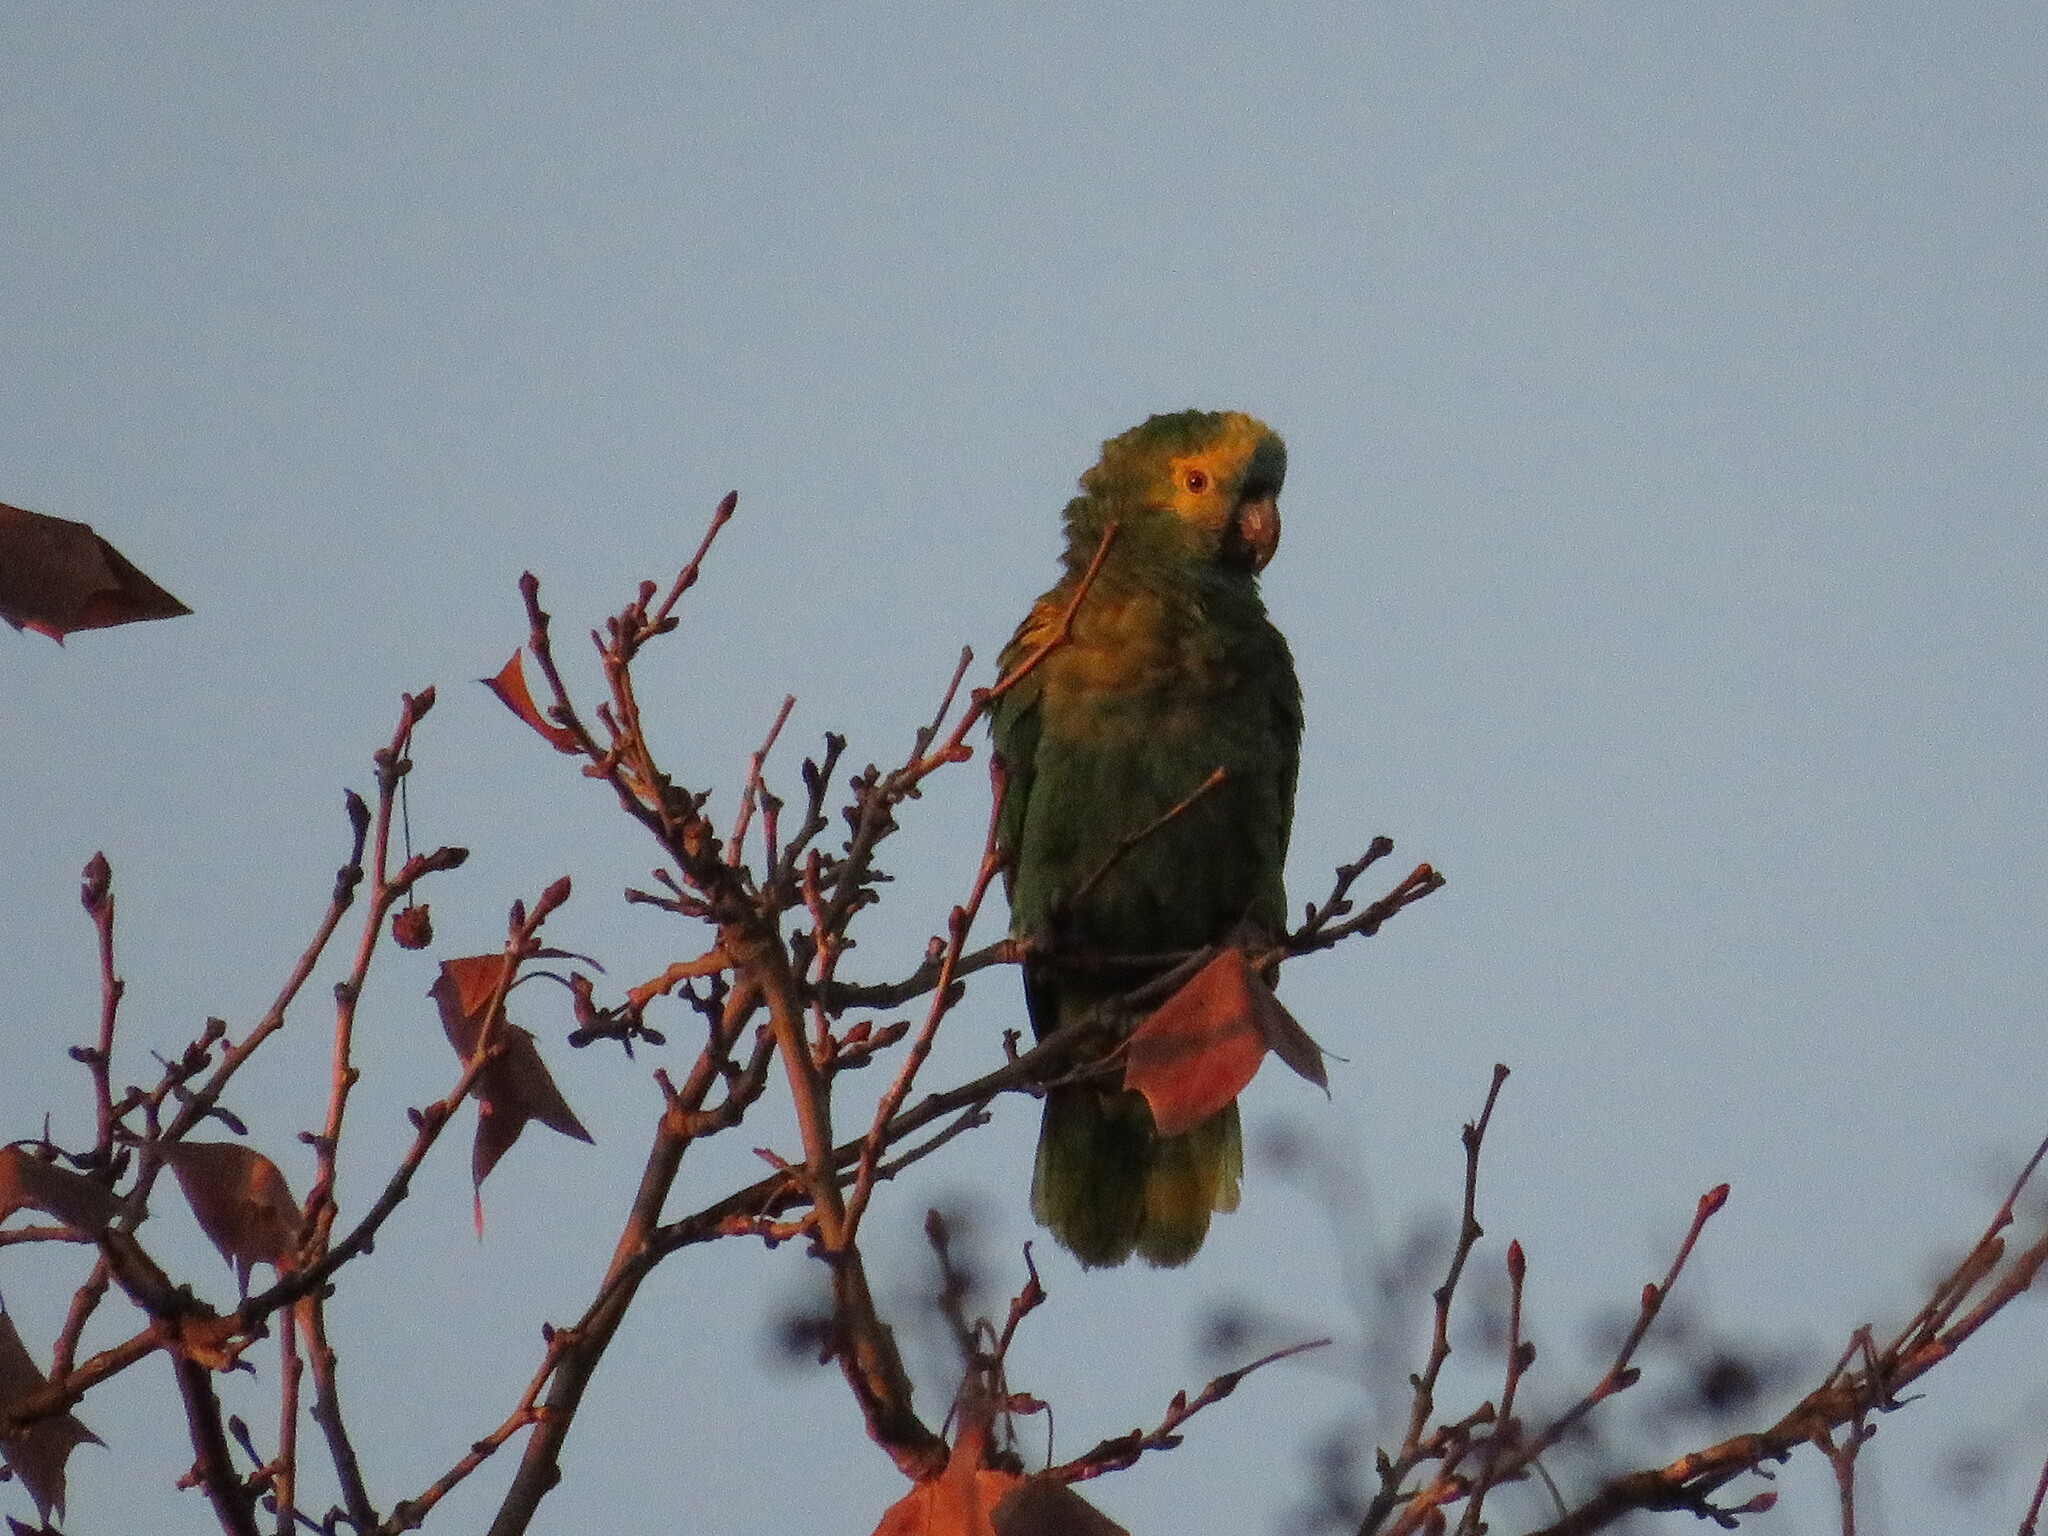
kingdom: Animalia
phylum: Chordata
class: Aves
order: Psittaciformes
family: Psittacidae
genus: Amazona
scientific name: Amazona aestiva
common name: Turquoise-fronted amazon
